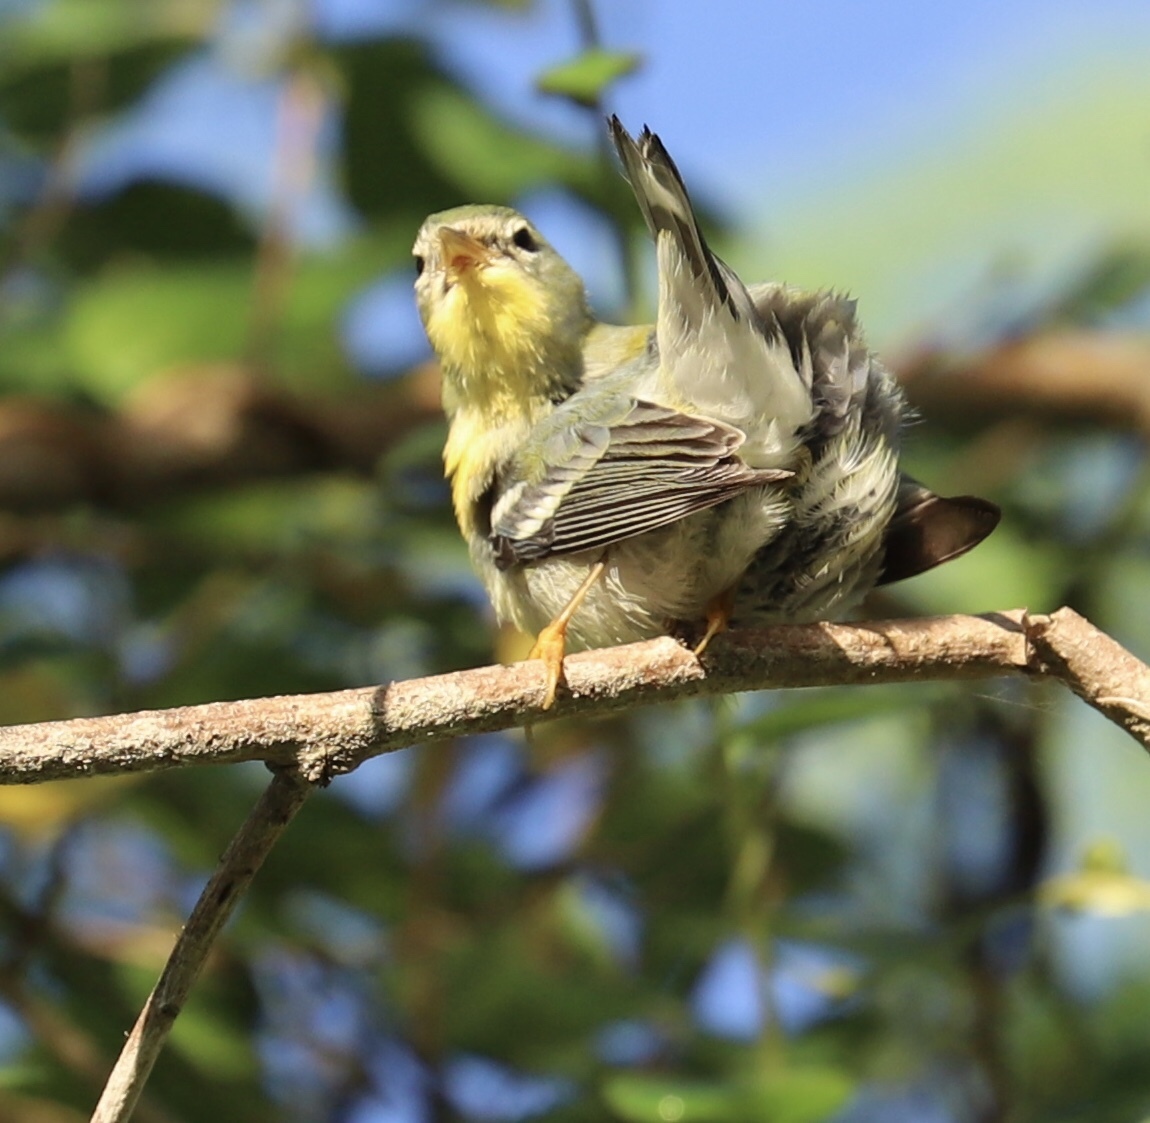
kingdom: Animalia
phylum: Chordata
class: Aves
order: Passeriformes
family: Parulidae
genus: Setophaga
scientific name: Setophaga americana
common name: Northern parula
